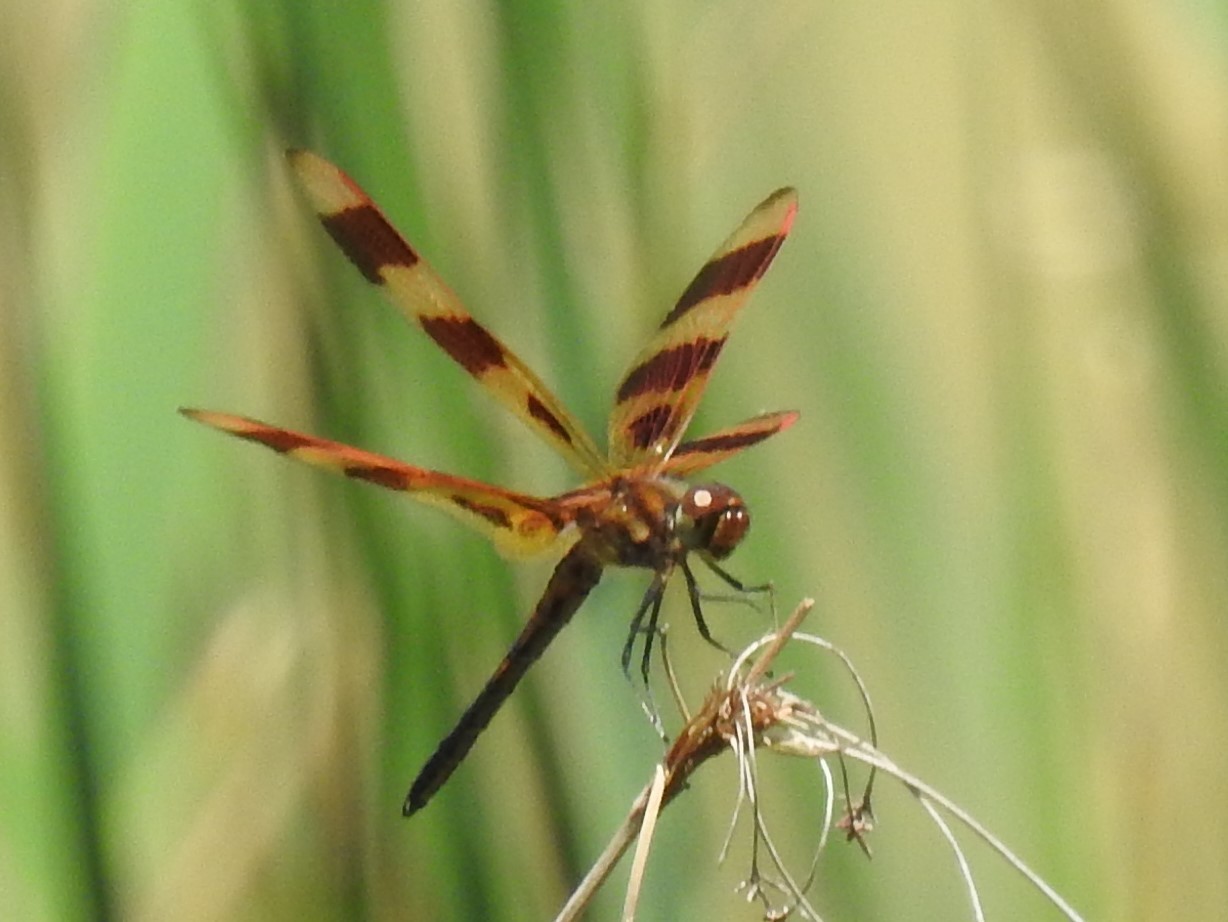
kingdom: Animalia
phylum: Arthropoda
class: Insecta
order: Odonata
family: Libellulidae
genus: Celithemis
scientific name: Celithemis eponina
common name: Halloween pennant
